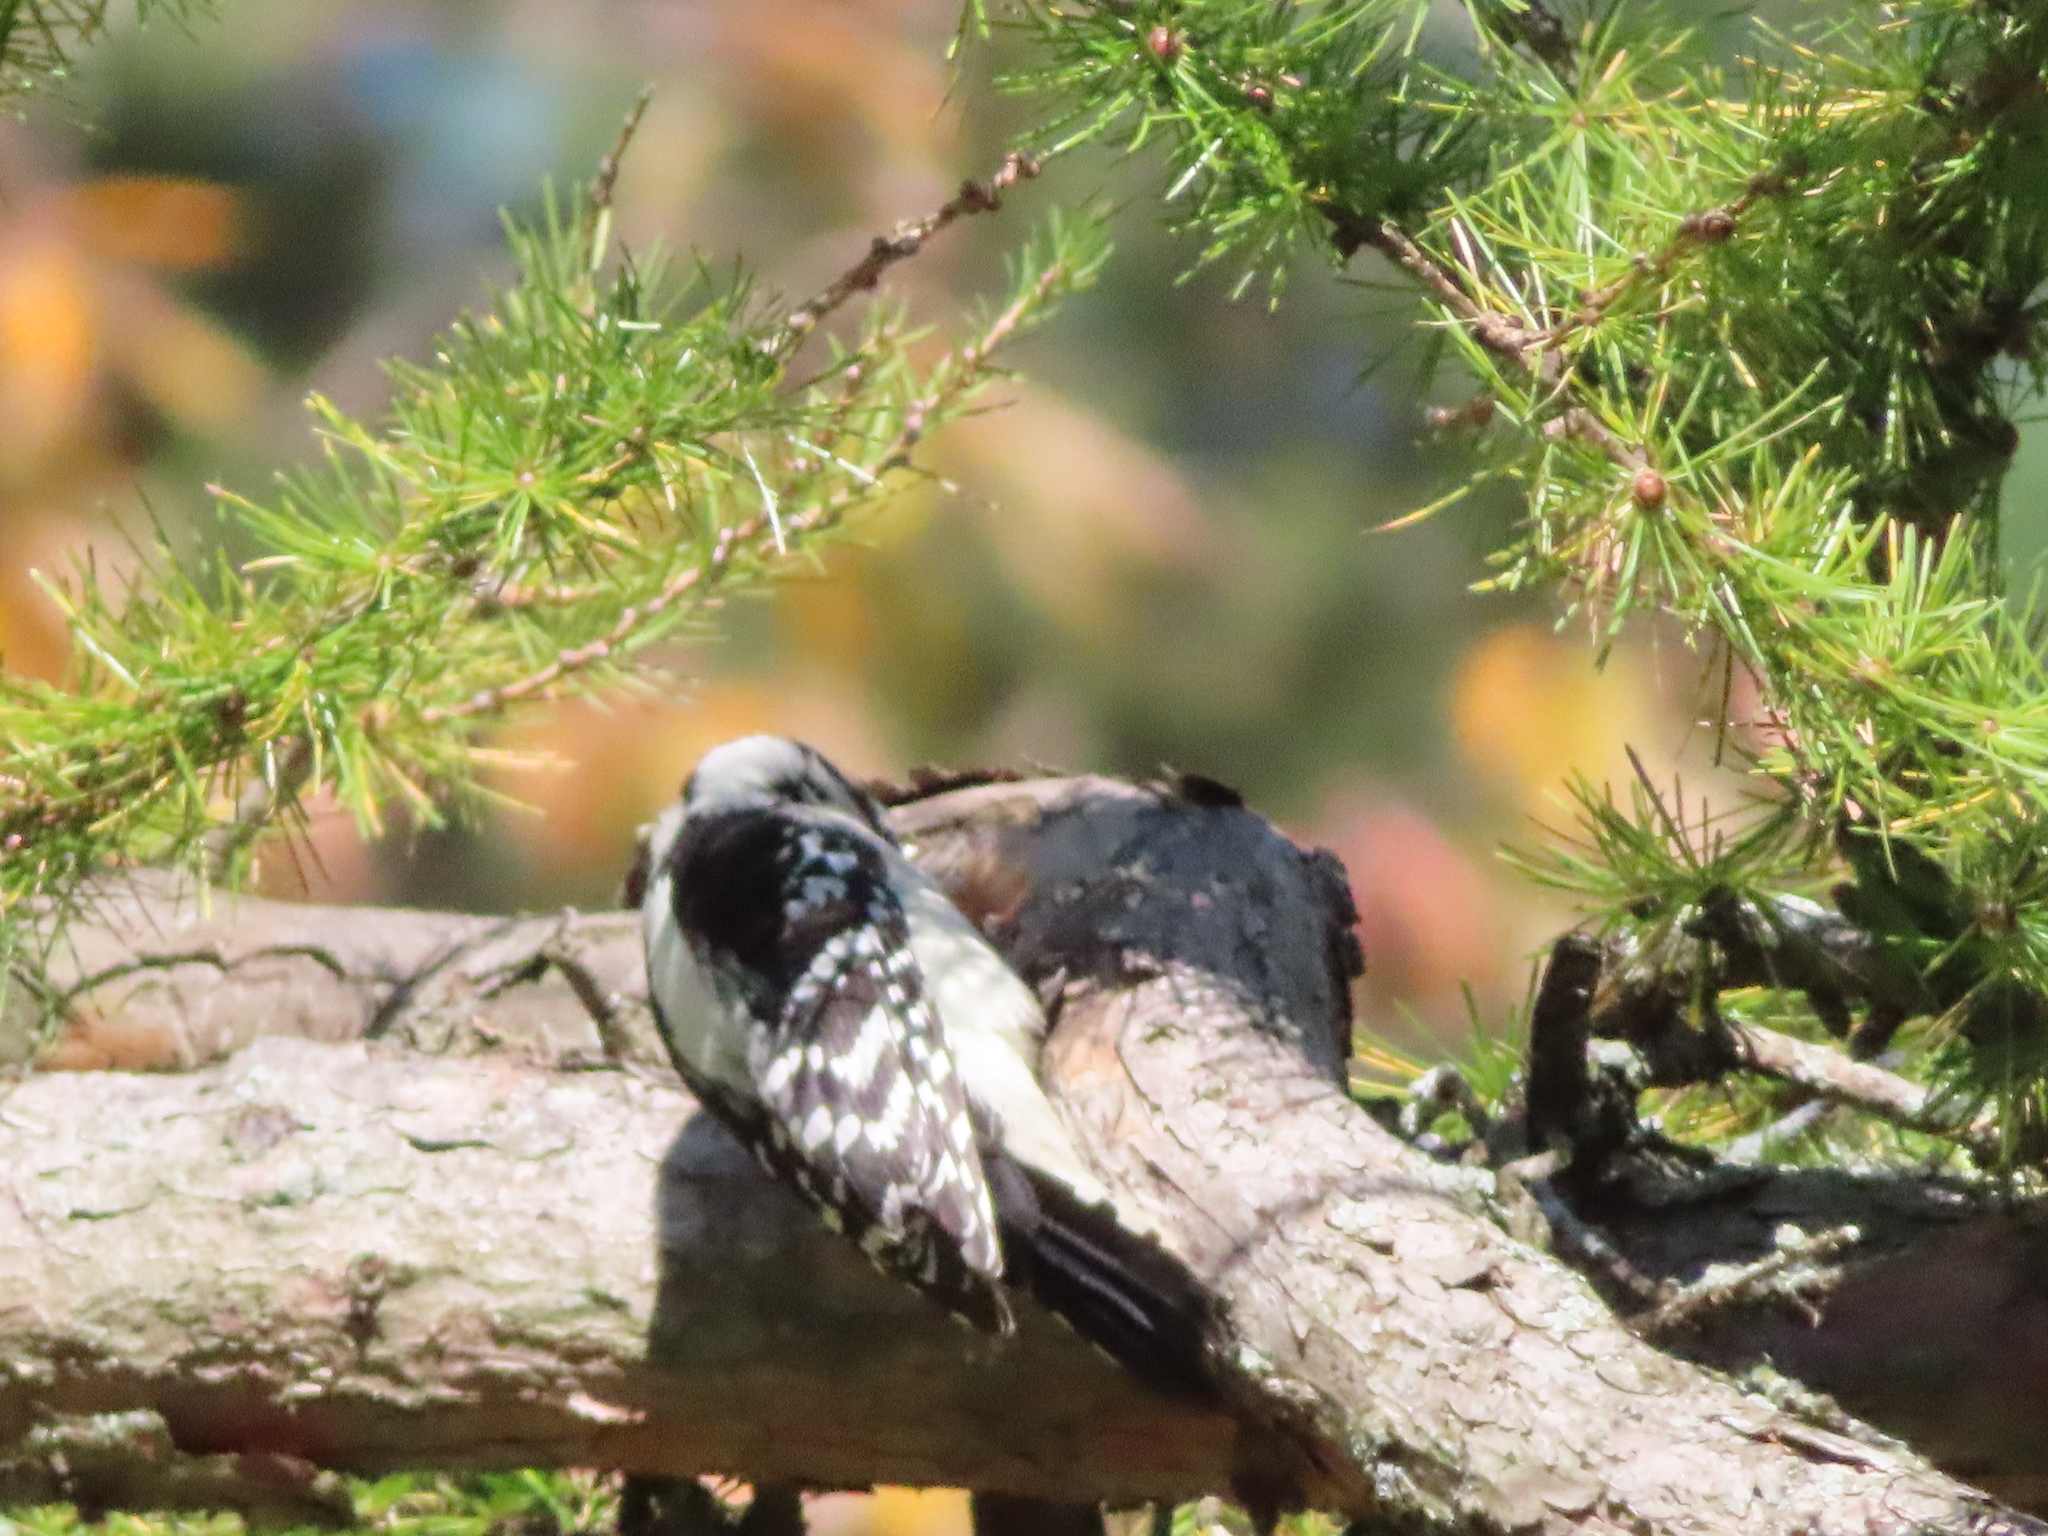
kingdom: Animalia
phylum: Chordata
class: Aves
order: Piciformes
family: Picidae
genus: Dryobates
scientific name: Dryobates pubescens
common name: Downy woodpecker
